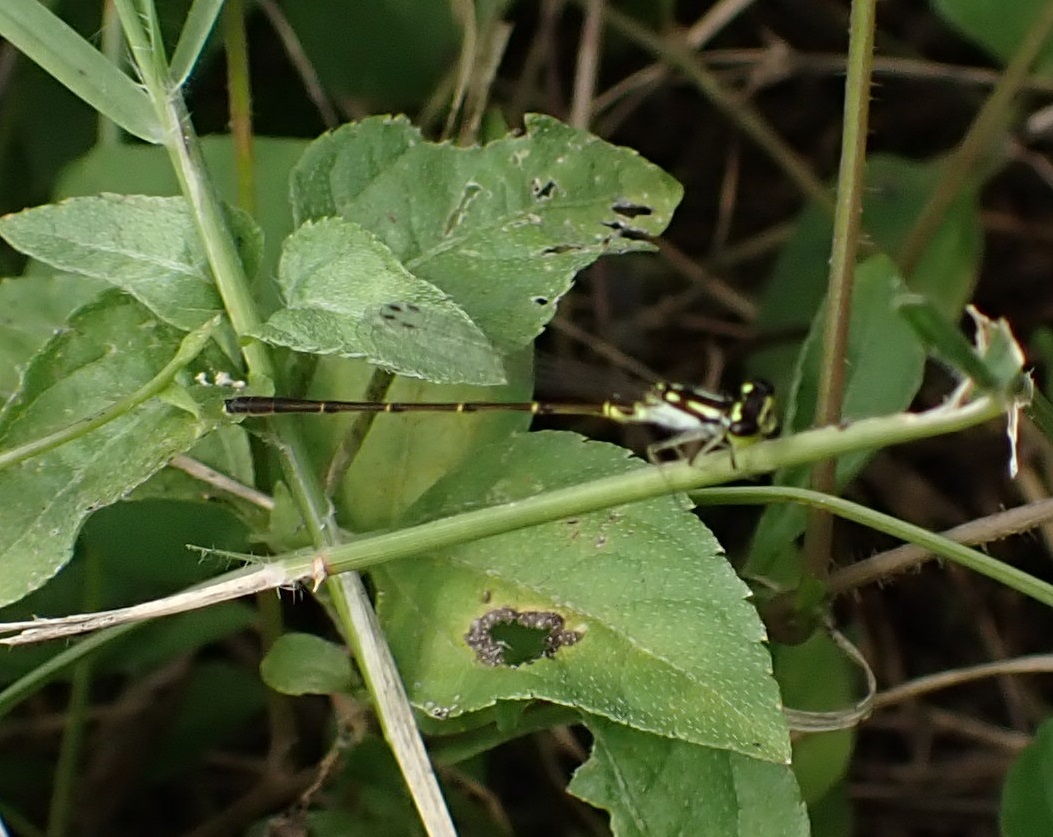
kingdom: Animalia
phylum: Arthropoda
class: Insecta
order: Odonata
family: Coenagrionidae
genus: Ischnura
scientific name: Ischnura posita
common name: Fragile forktail
